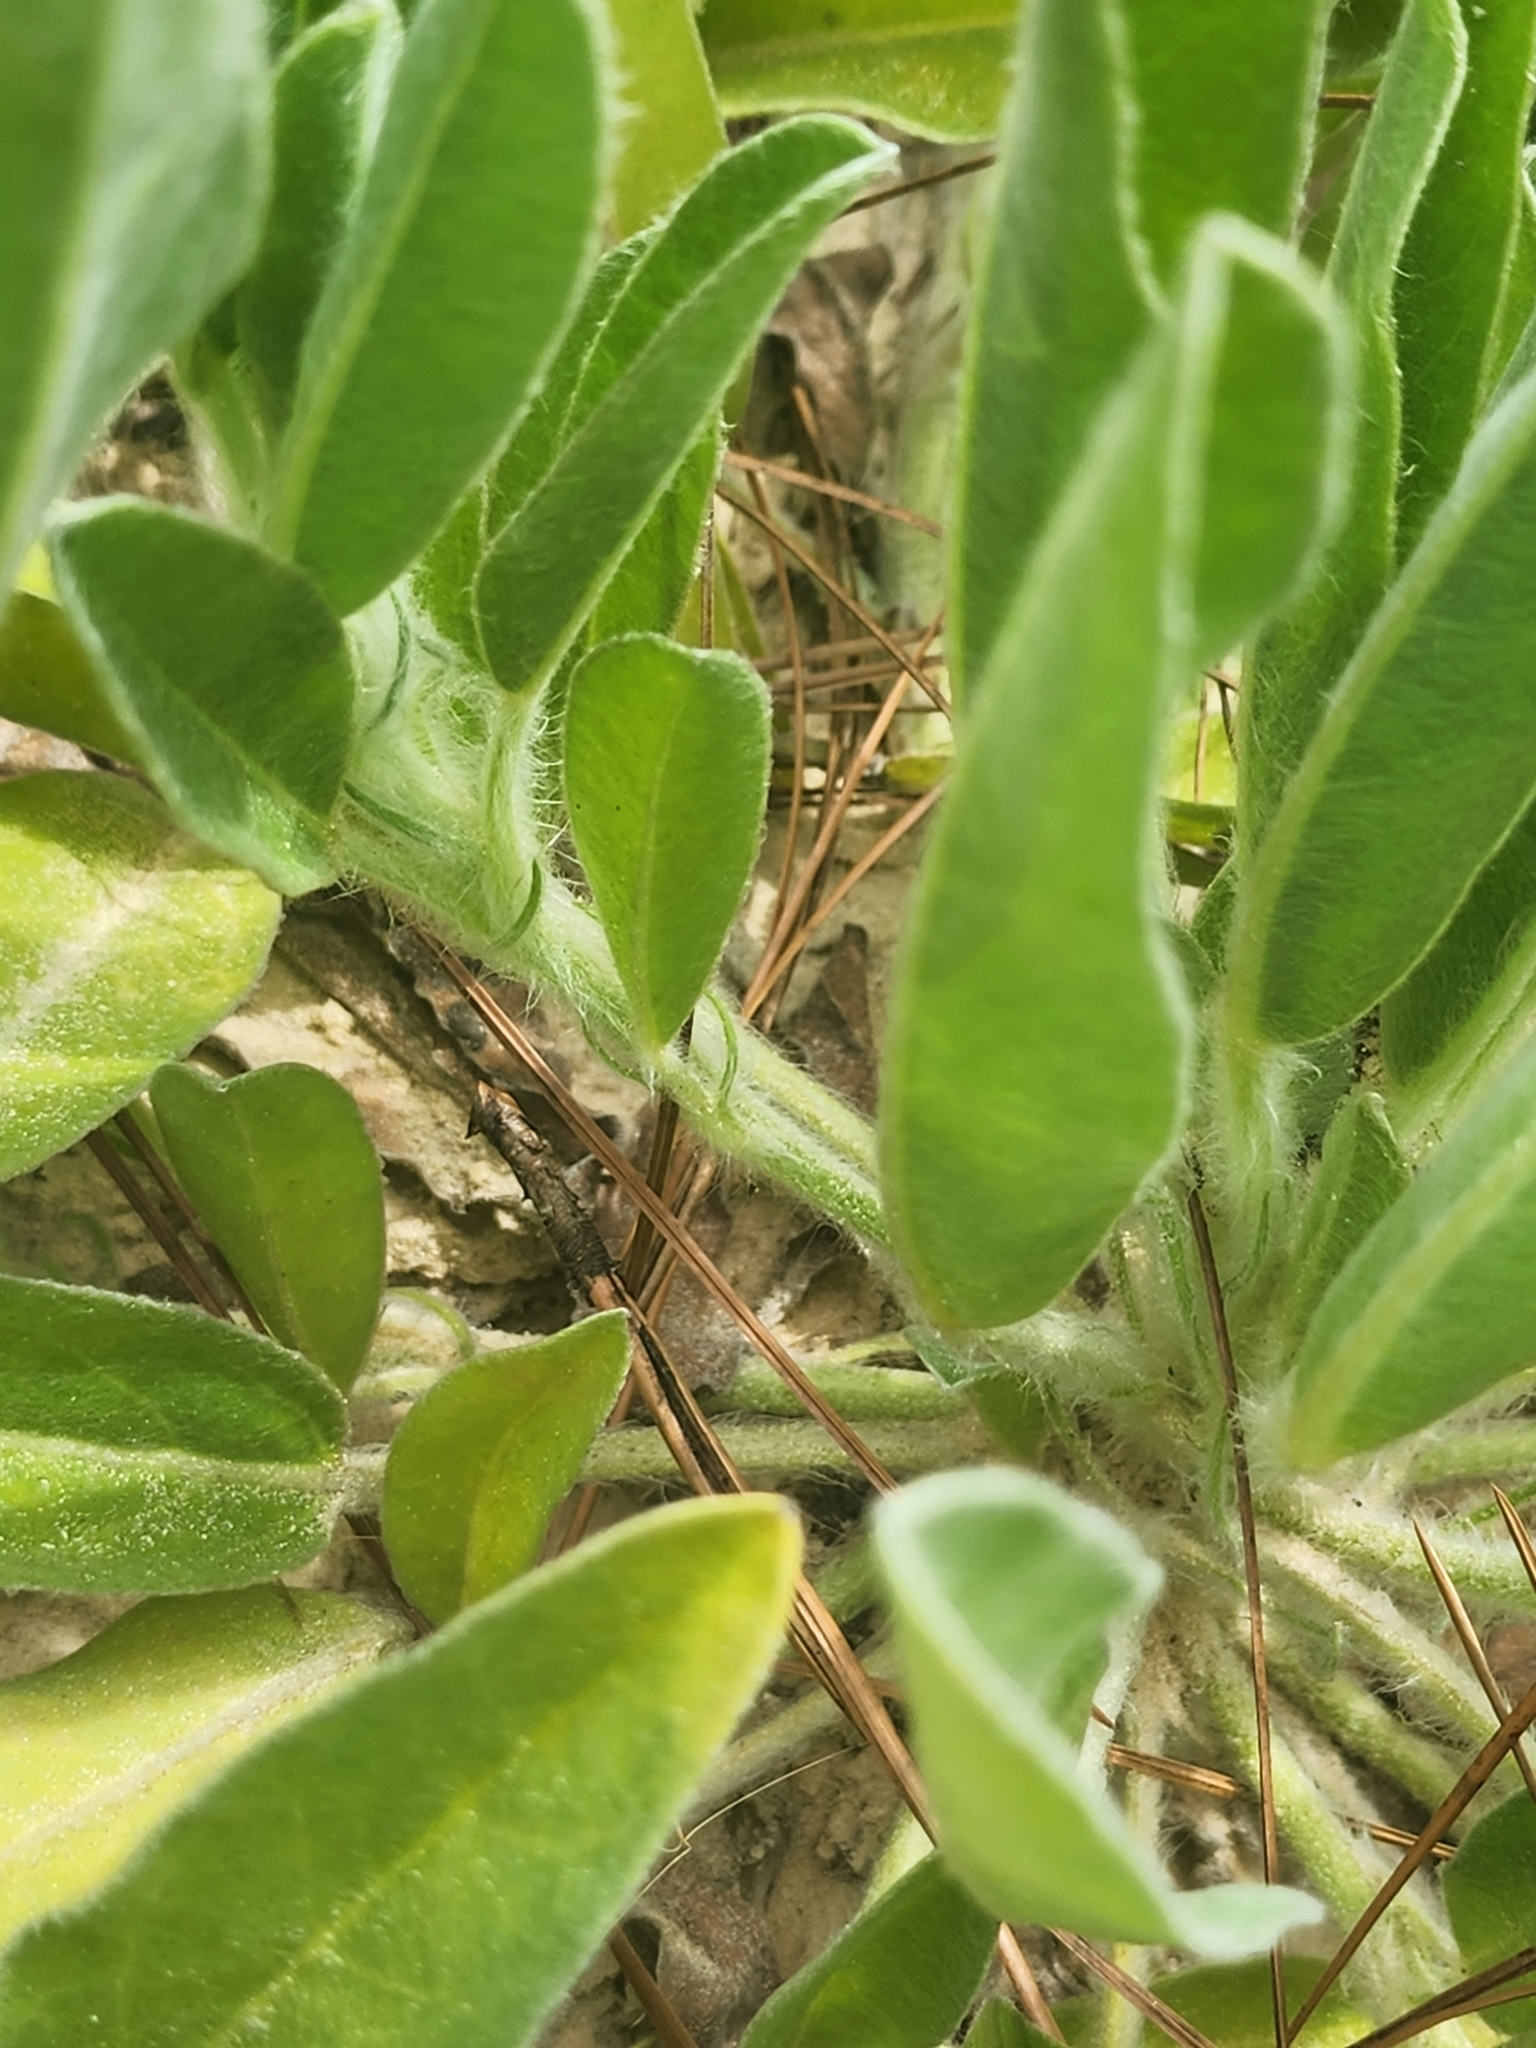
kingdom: Plantae
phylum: Tracheophyta
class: Magnoliopsida
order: Fabales
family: Fabaceae
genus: Lupinus
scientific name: Lupinus
